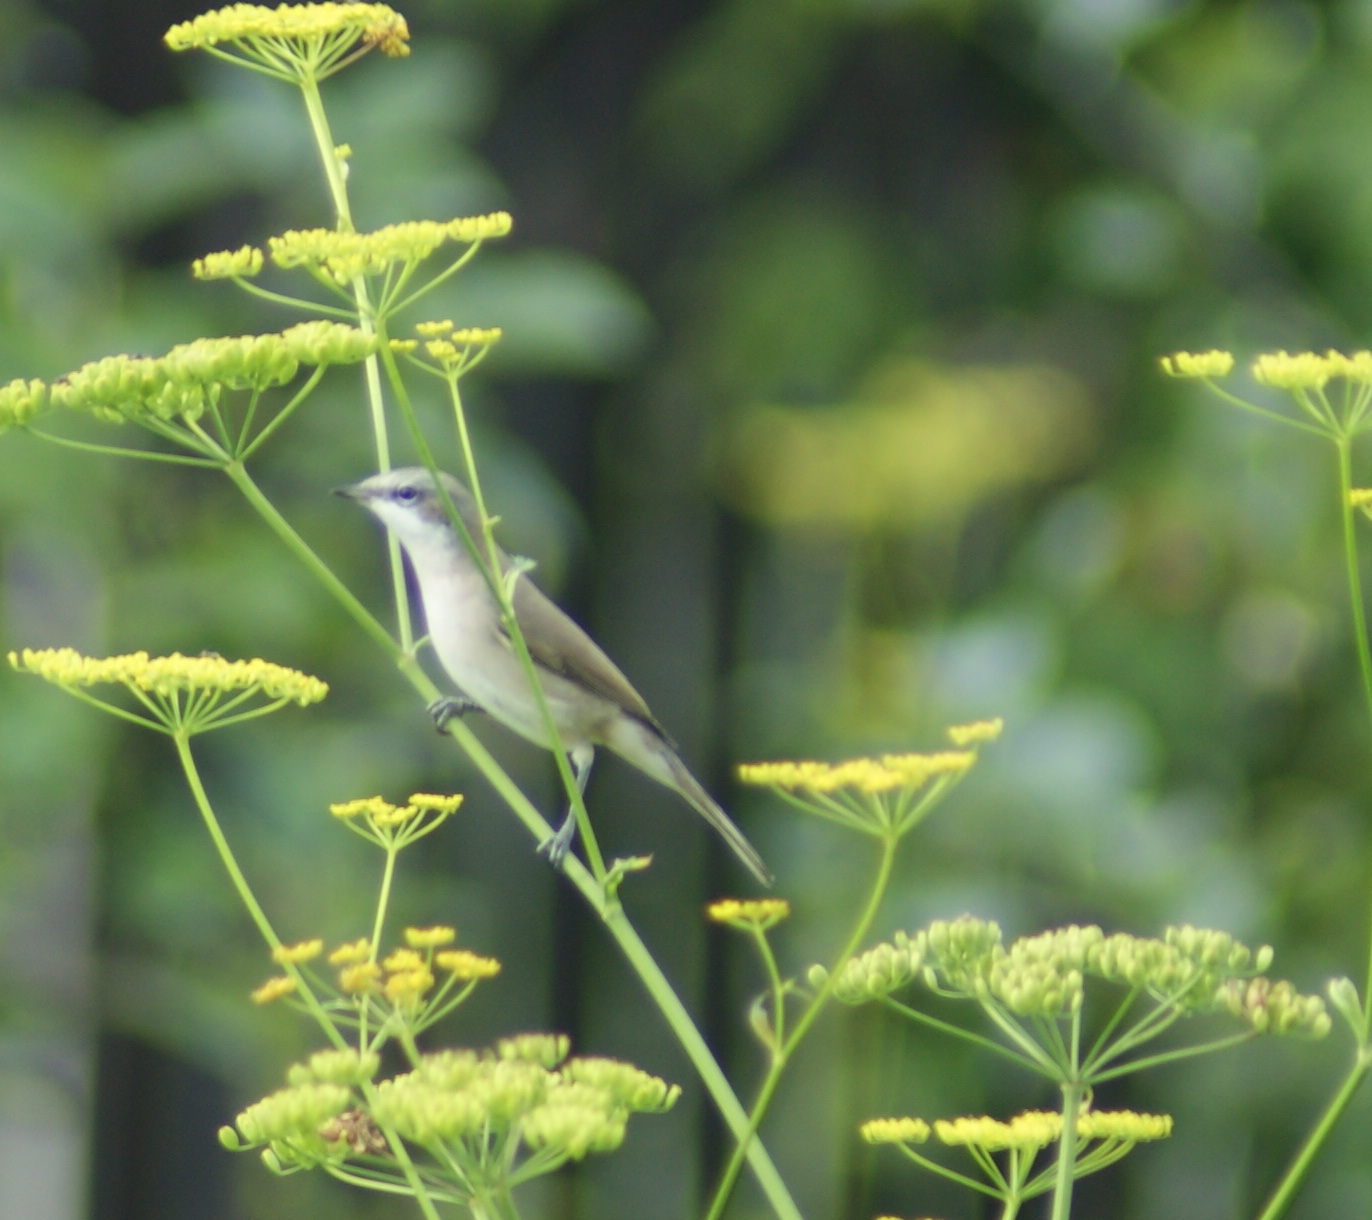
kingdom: Animalia
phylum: Chordata
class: Aves
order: Passeriformes
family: Sylviidae
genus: Sylvia
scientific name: Sylvia curruca
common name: Lesser whitethroat
